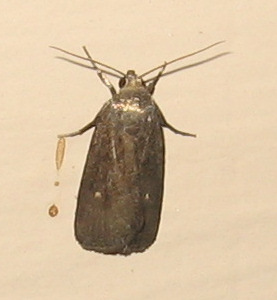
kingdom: Animalia
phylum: Arthropoda
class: Insecta
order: Lepidoptera
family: Noctuidae
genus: Proxenus
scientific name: Proxenus miranda
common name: Miranda moth
